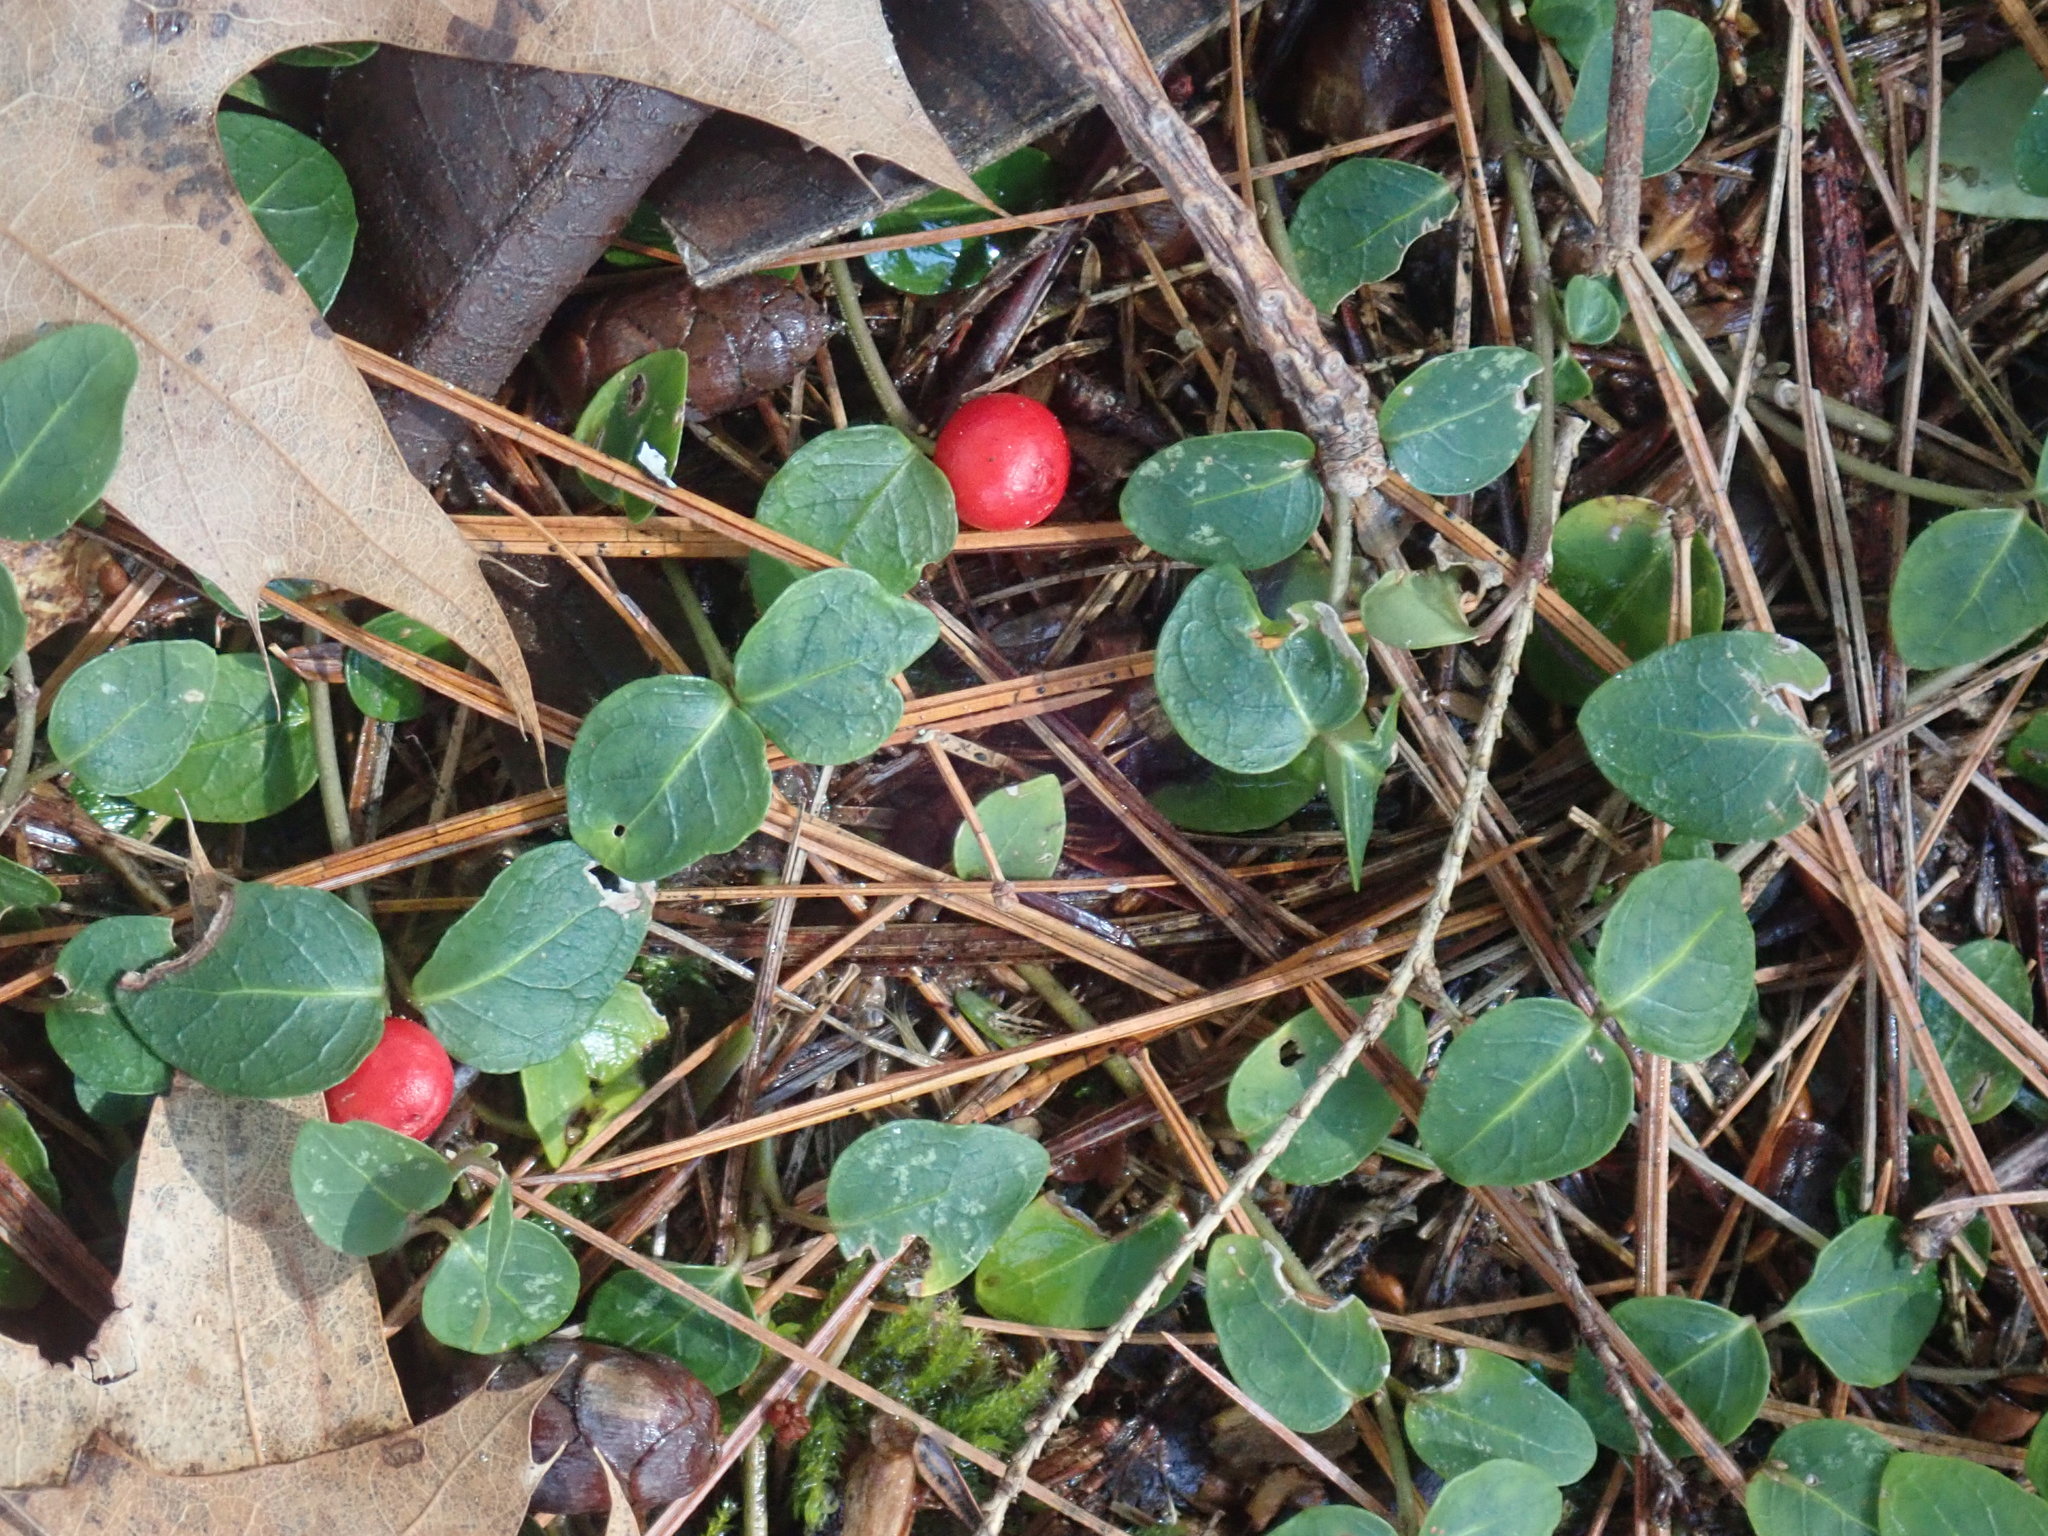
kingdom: Plantae
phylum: Tracheophyta
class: Magnoliopsida
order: Gentianales
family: Rubiaceae
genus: Mitchella
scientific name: Mitchella repens
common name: Partridge-berry
